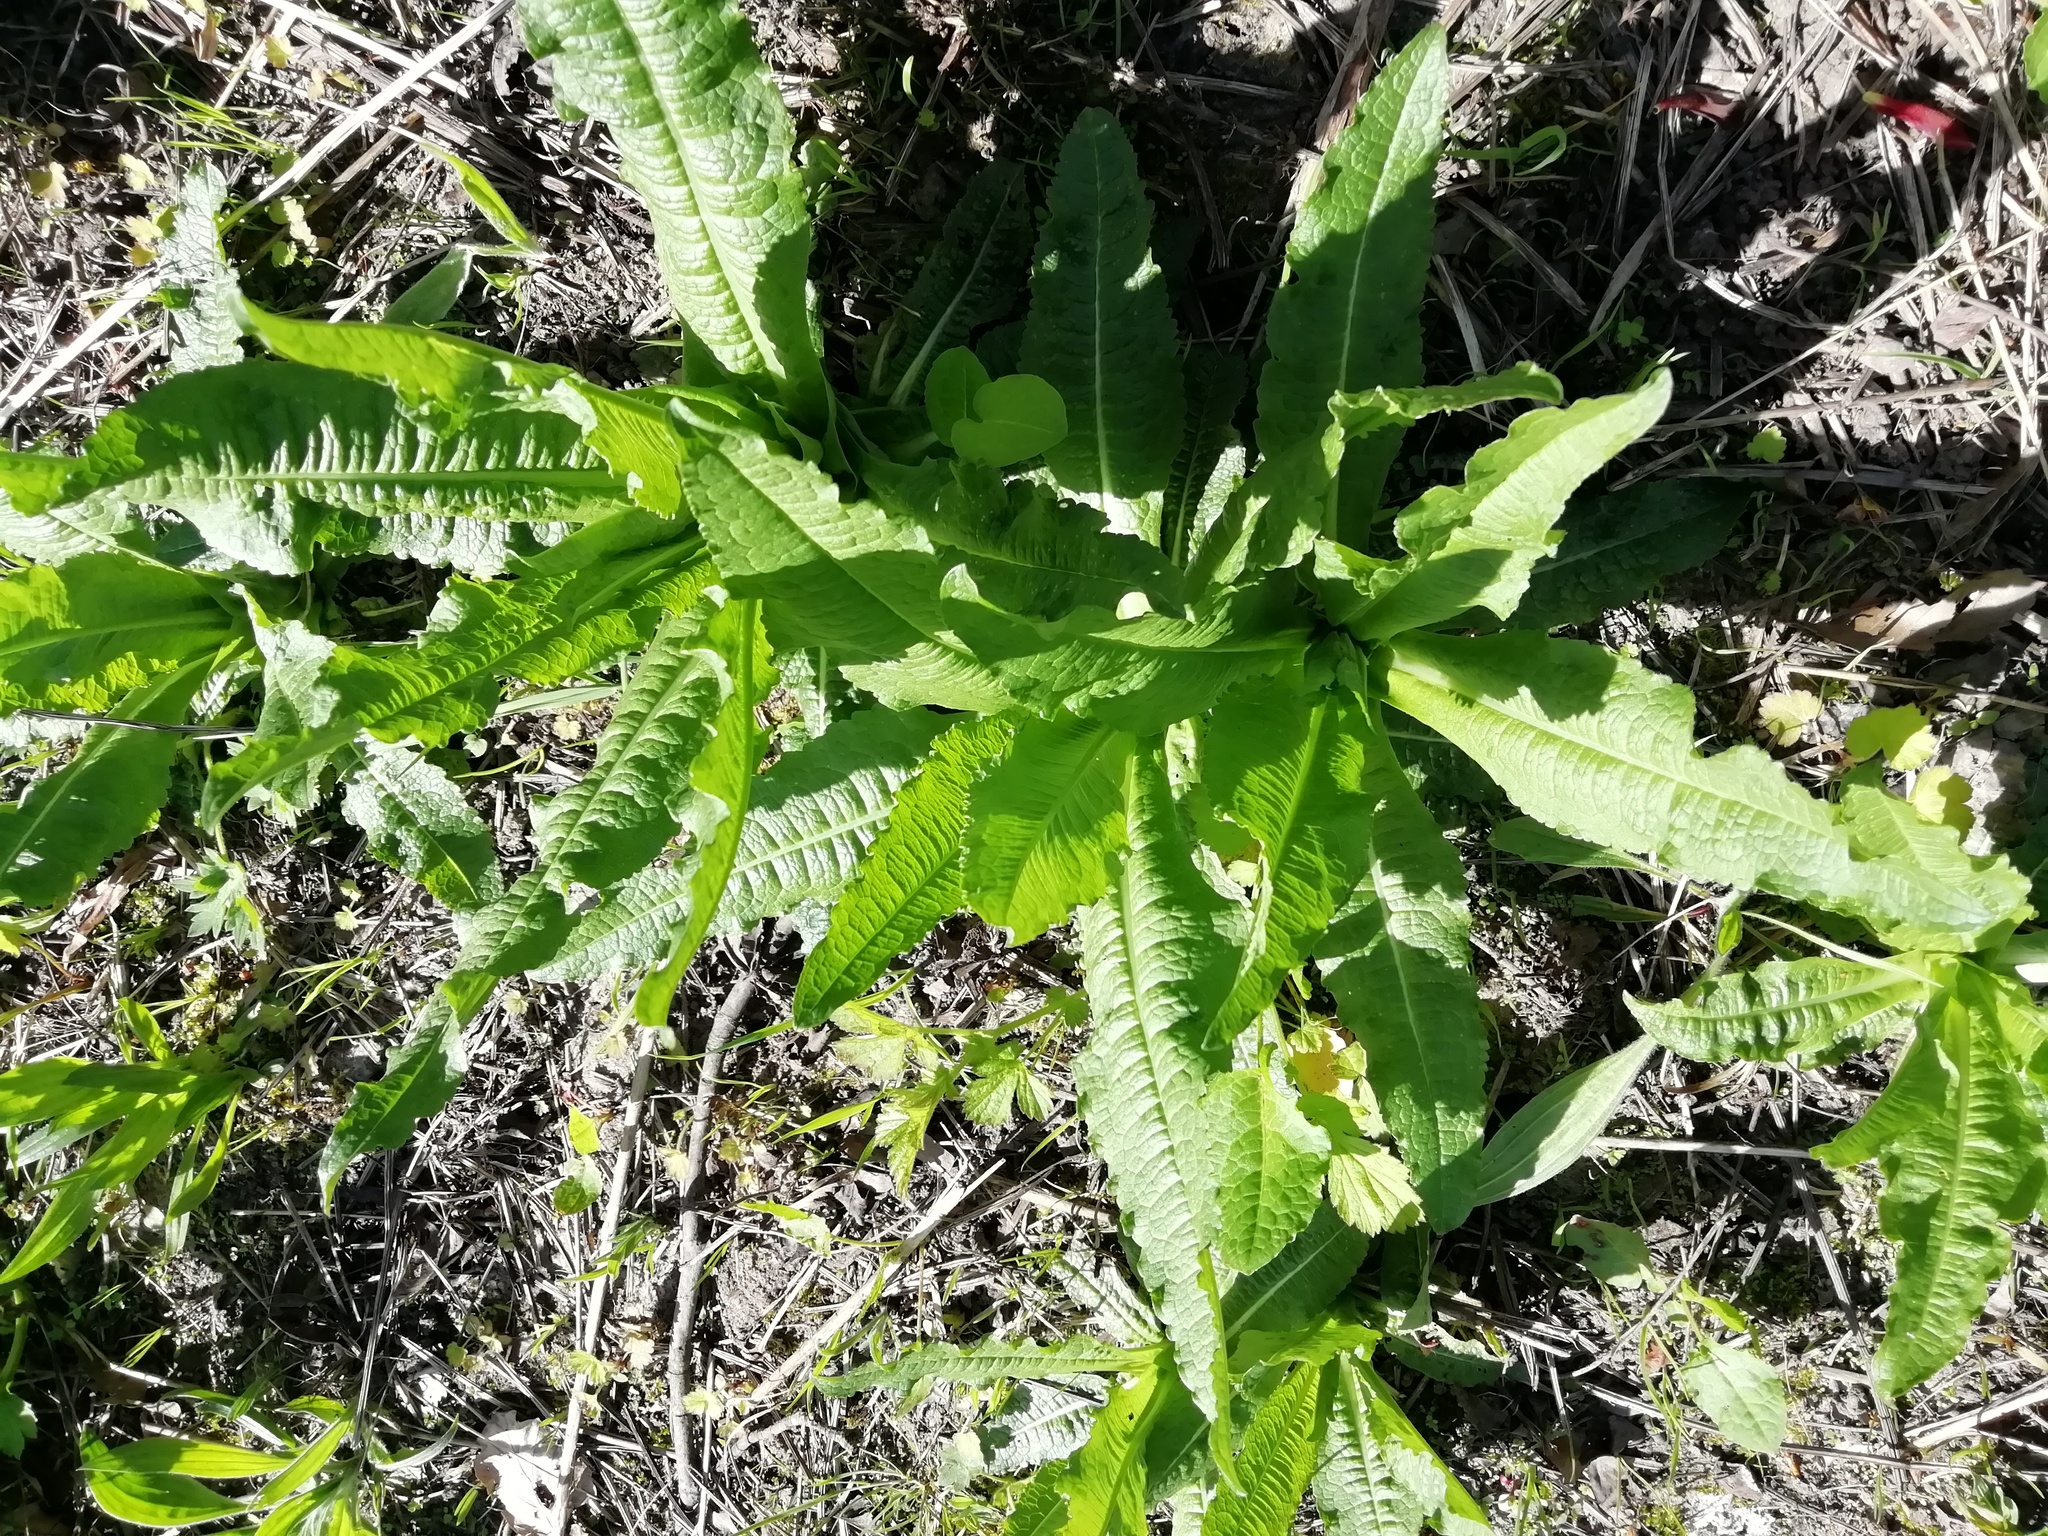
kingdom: Plantae
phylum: Tracheophyta
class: Magnoliopsida
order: Dipsacales
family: Caprifoliaceae
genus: Dipsacus
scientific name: Dipsacus fullonum
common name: Teasel
